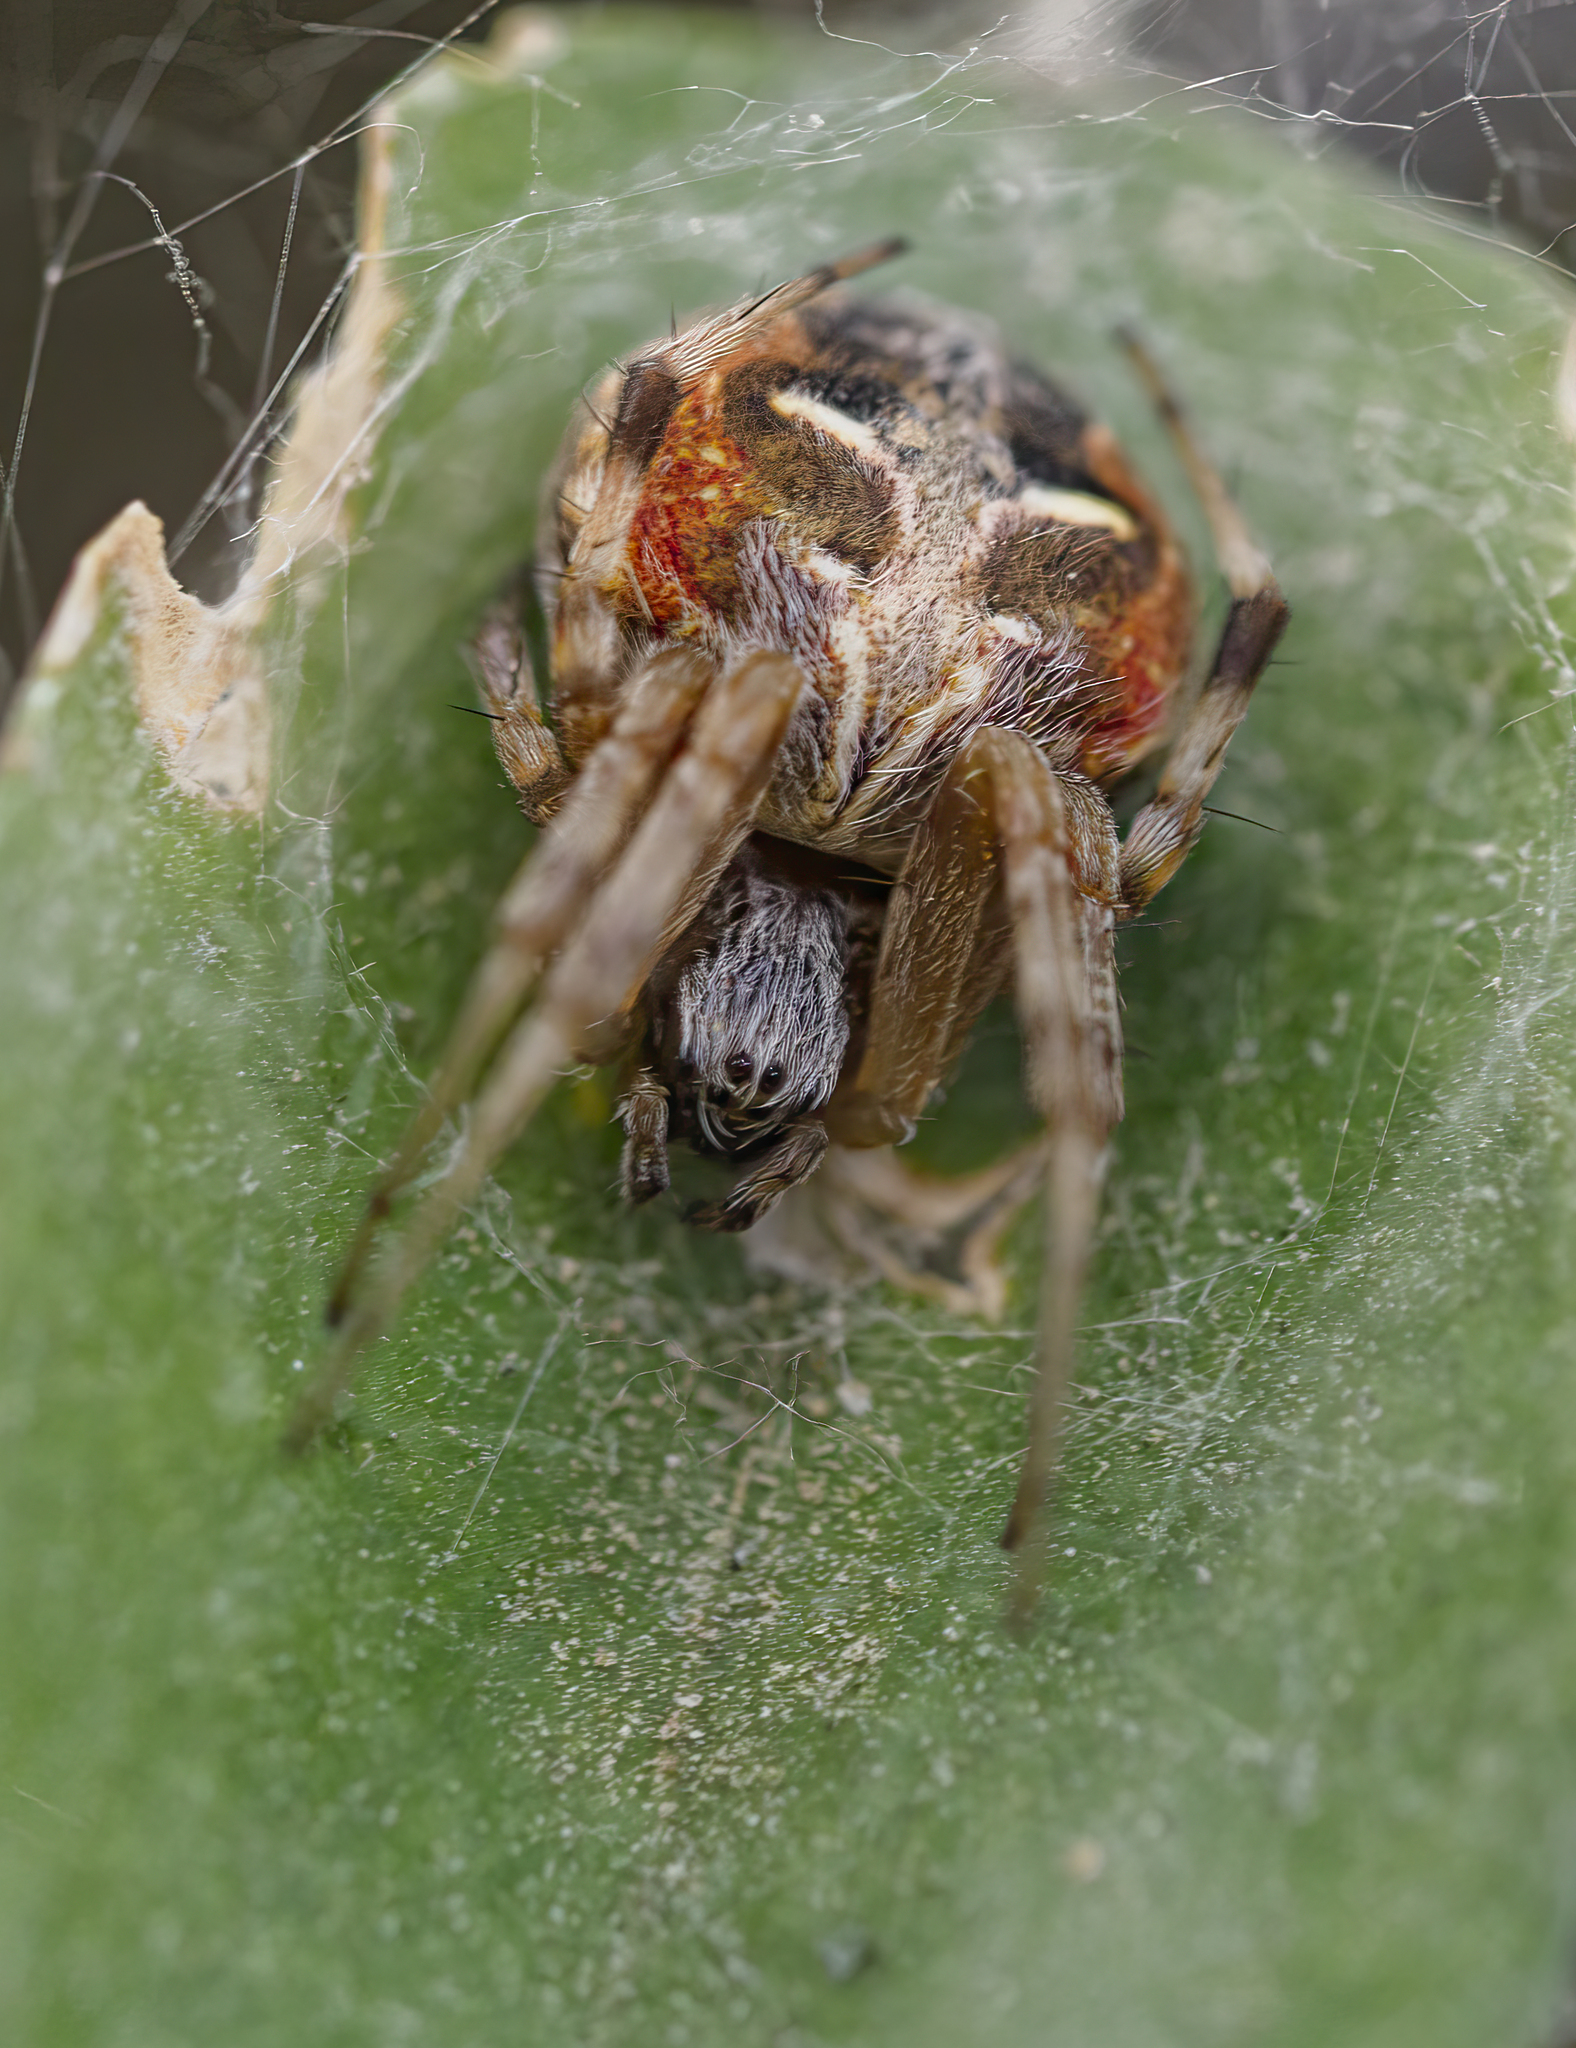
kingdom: Animalia
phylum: Arthropoda
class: Arachnida
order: Araneae
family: Araneidae
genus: Metepeira
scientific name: Metepeira
